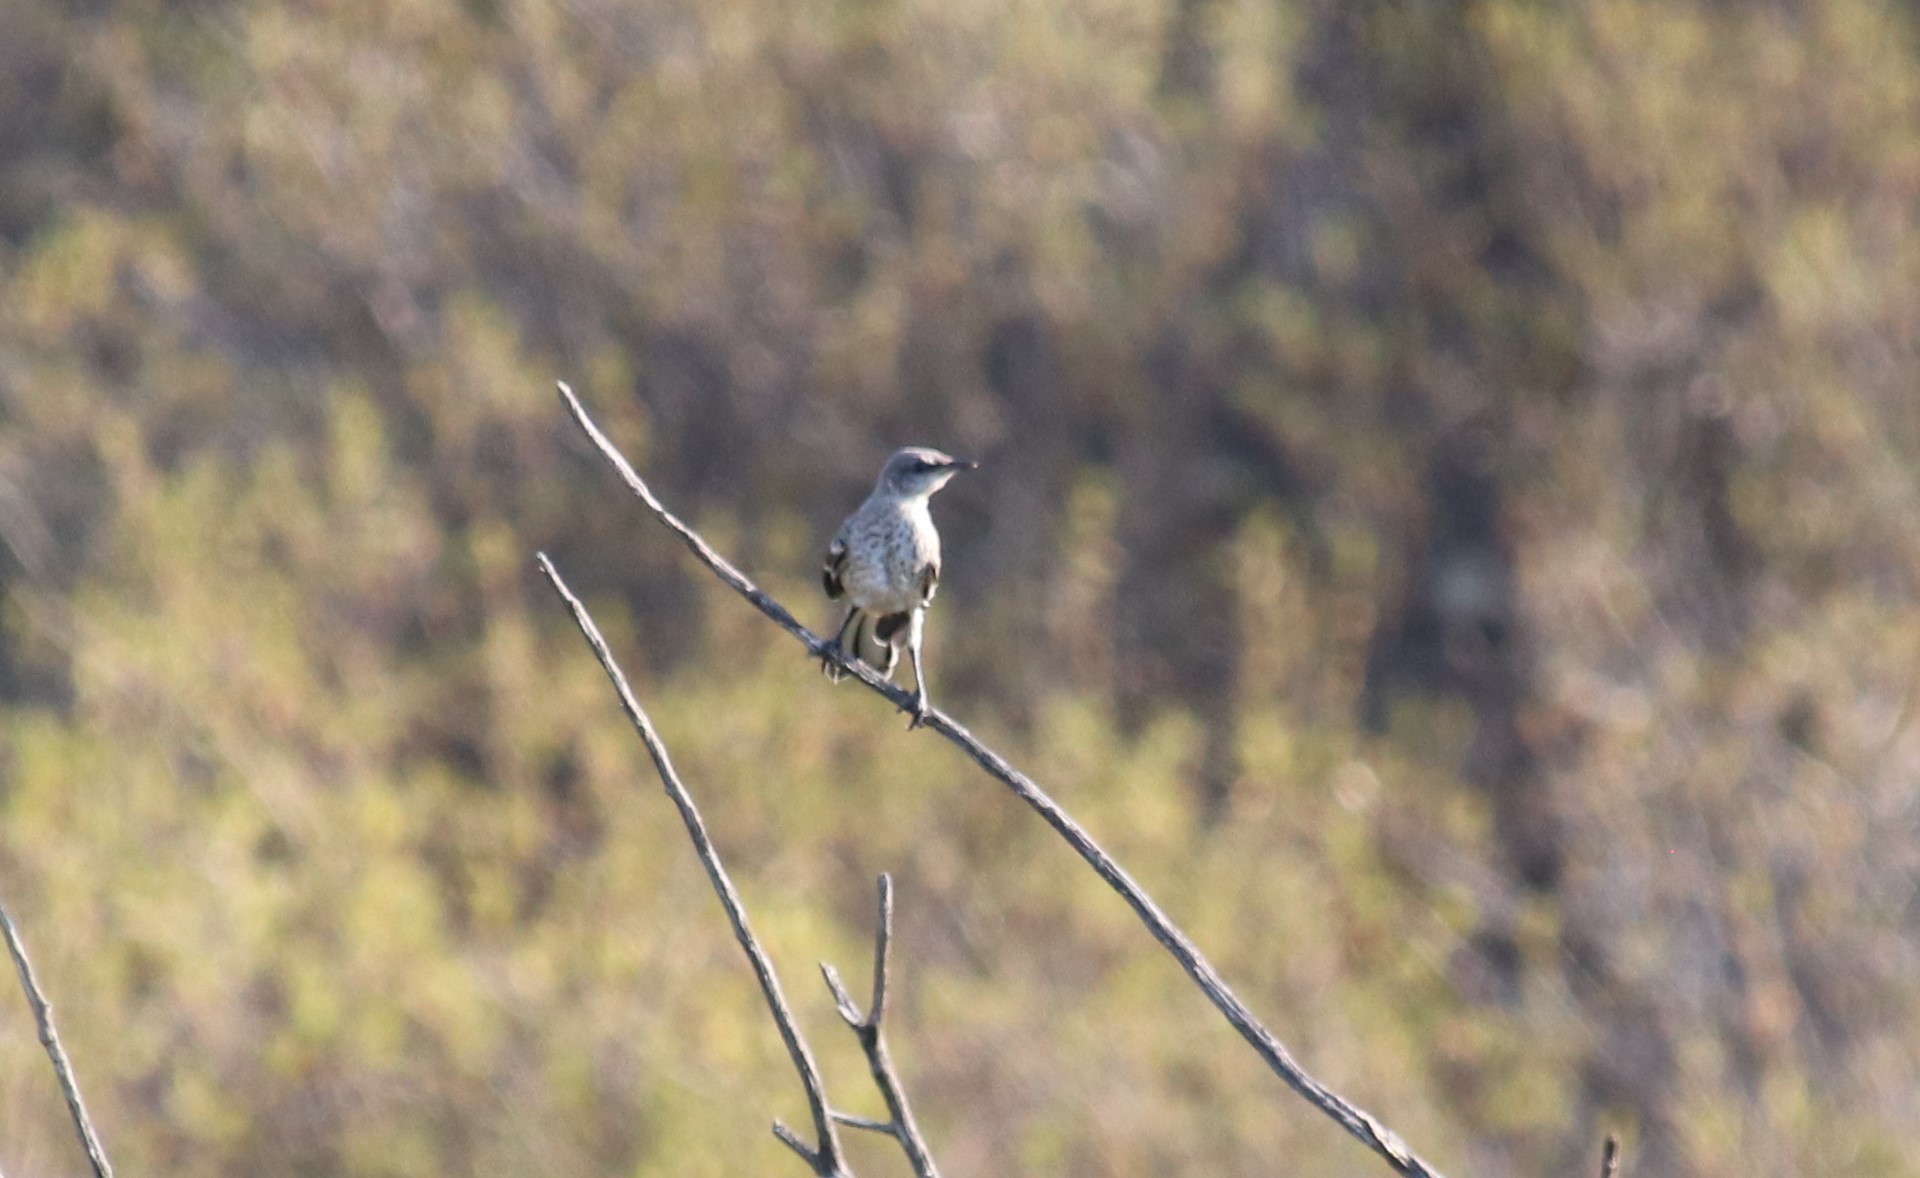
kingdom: Animalia
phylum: Chordata
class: Aves
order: Passeriformes
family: Mimidae
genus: Mimus
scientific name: Mimus polyglottos
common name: Northern mockingbird
